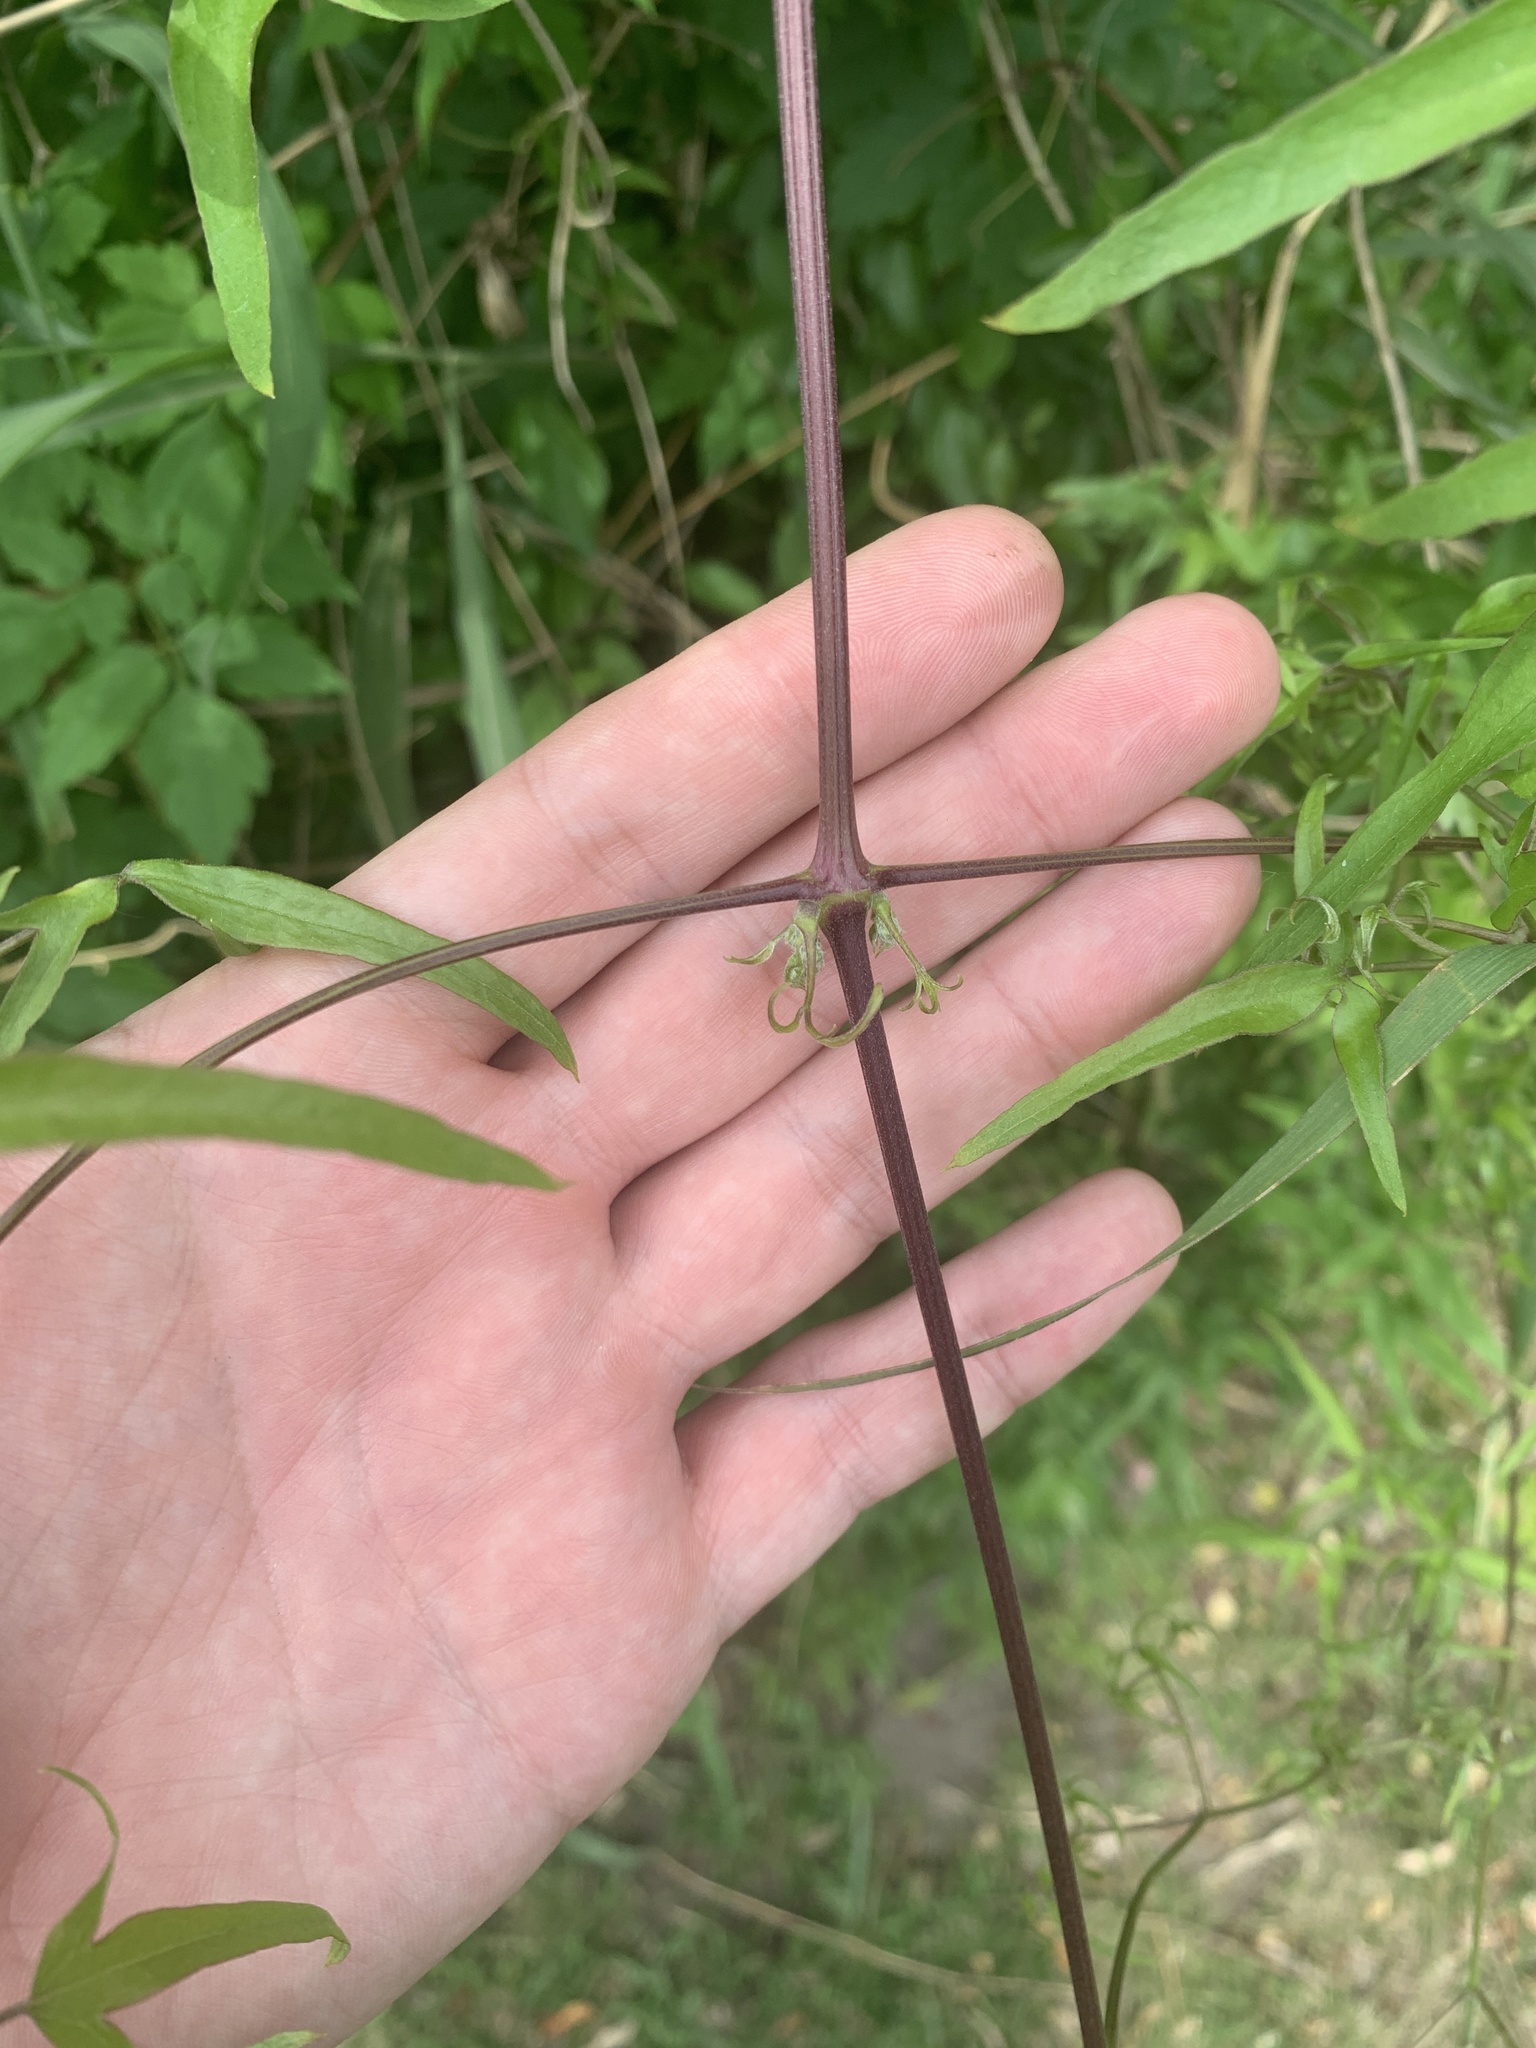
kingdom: Plantae
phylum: Tracheophyta
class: Magnoliopsida
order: Ranunculales
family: Ranunculaceae
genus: Clematis
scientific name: Clematis montevidensis
